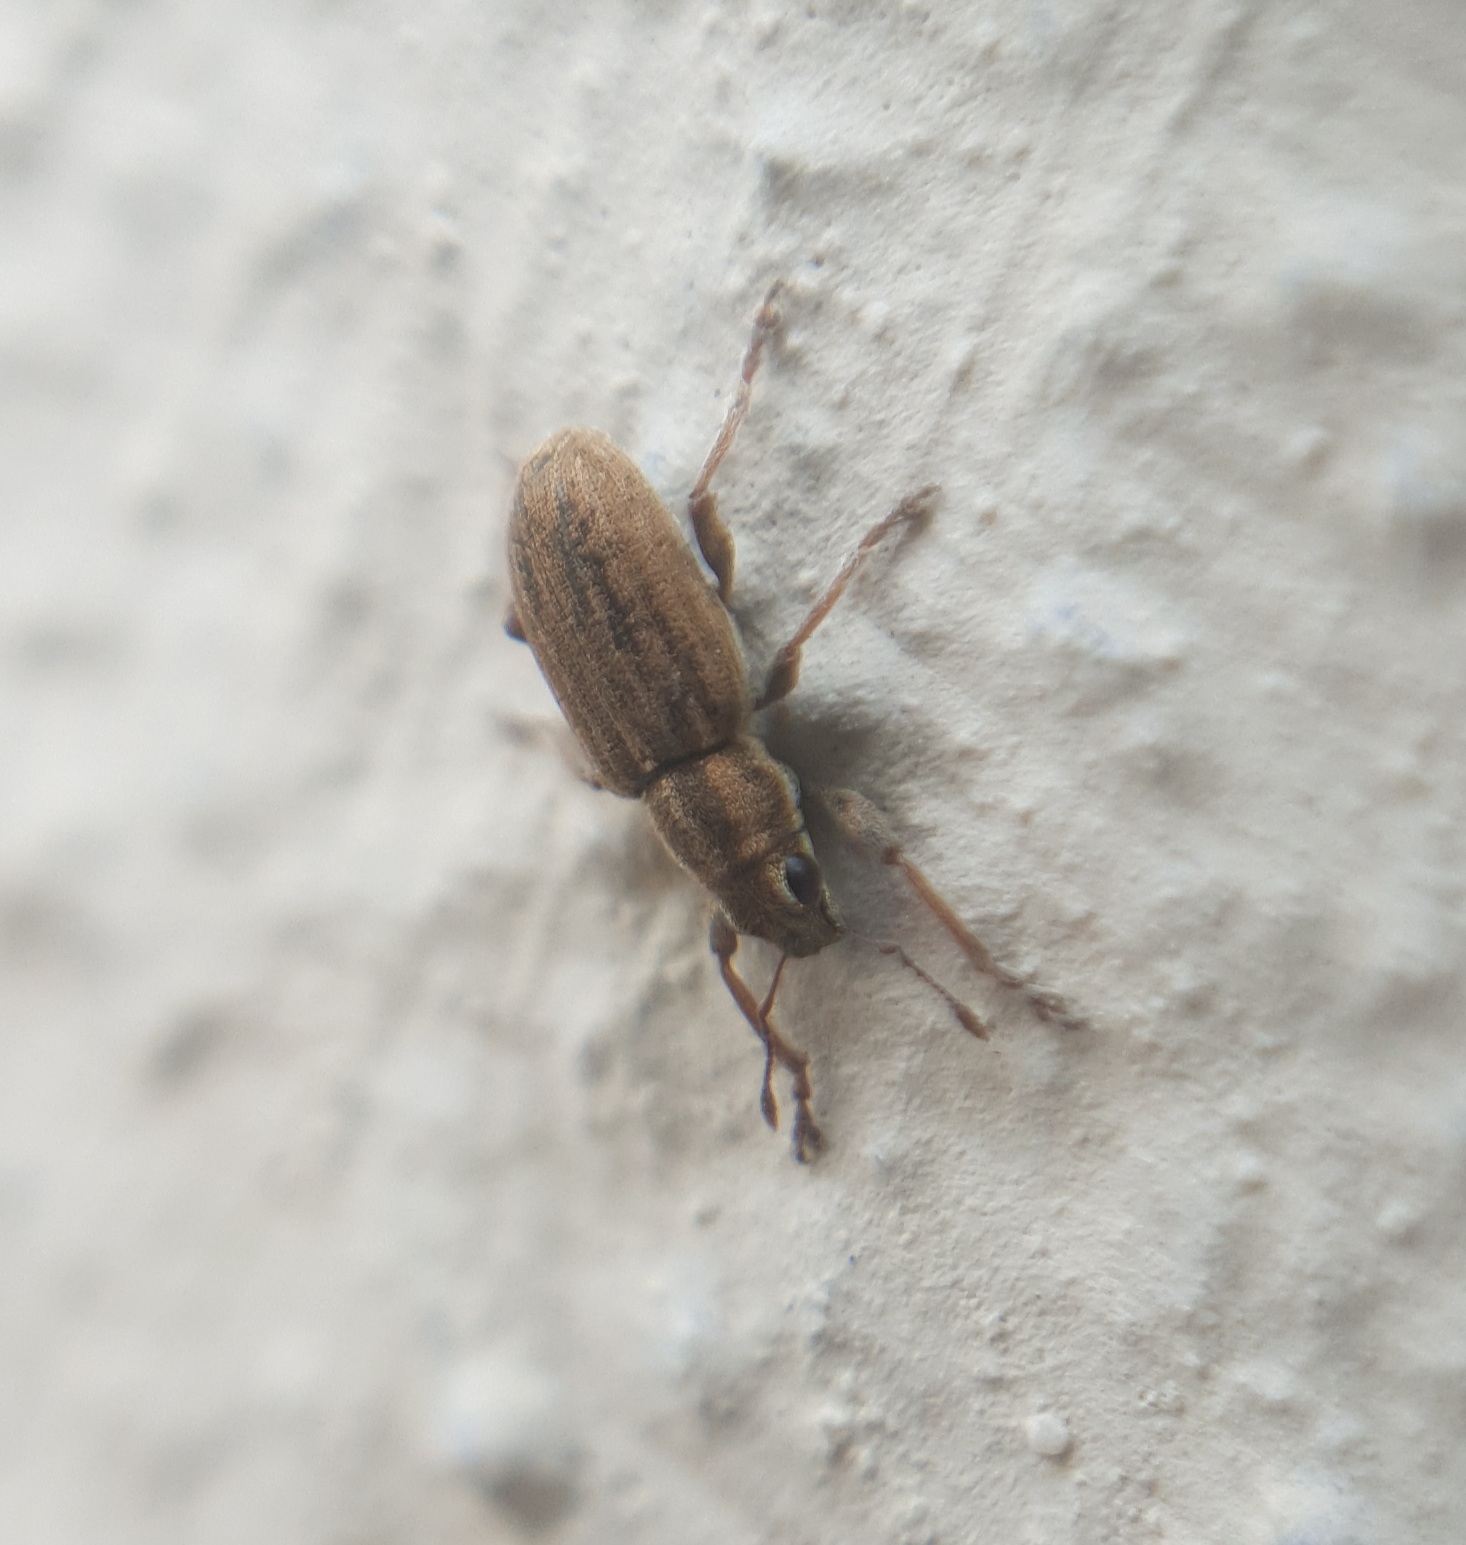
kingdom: Animalia
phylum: Arthropoda
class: Insecta
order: Coleoptera
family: Curculionidae
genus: Sitona
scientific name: Sitona lineatus
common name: Weevil
